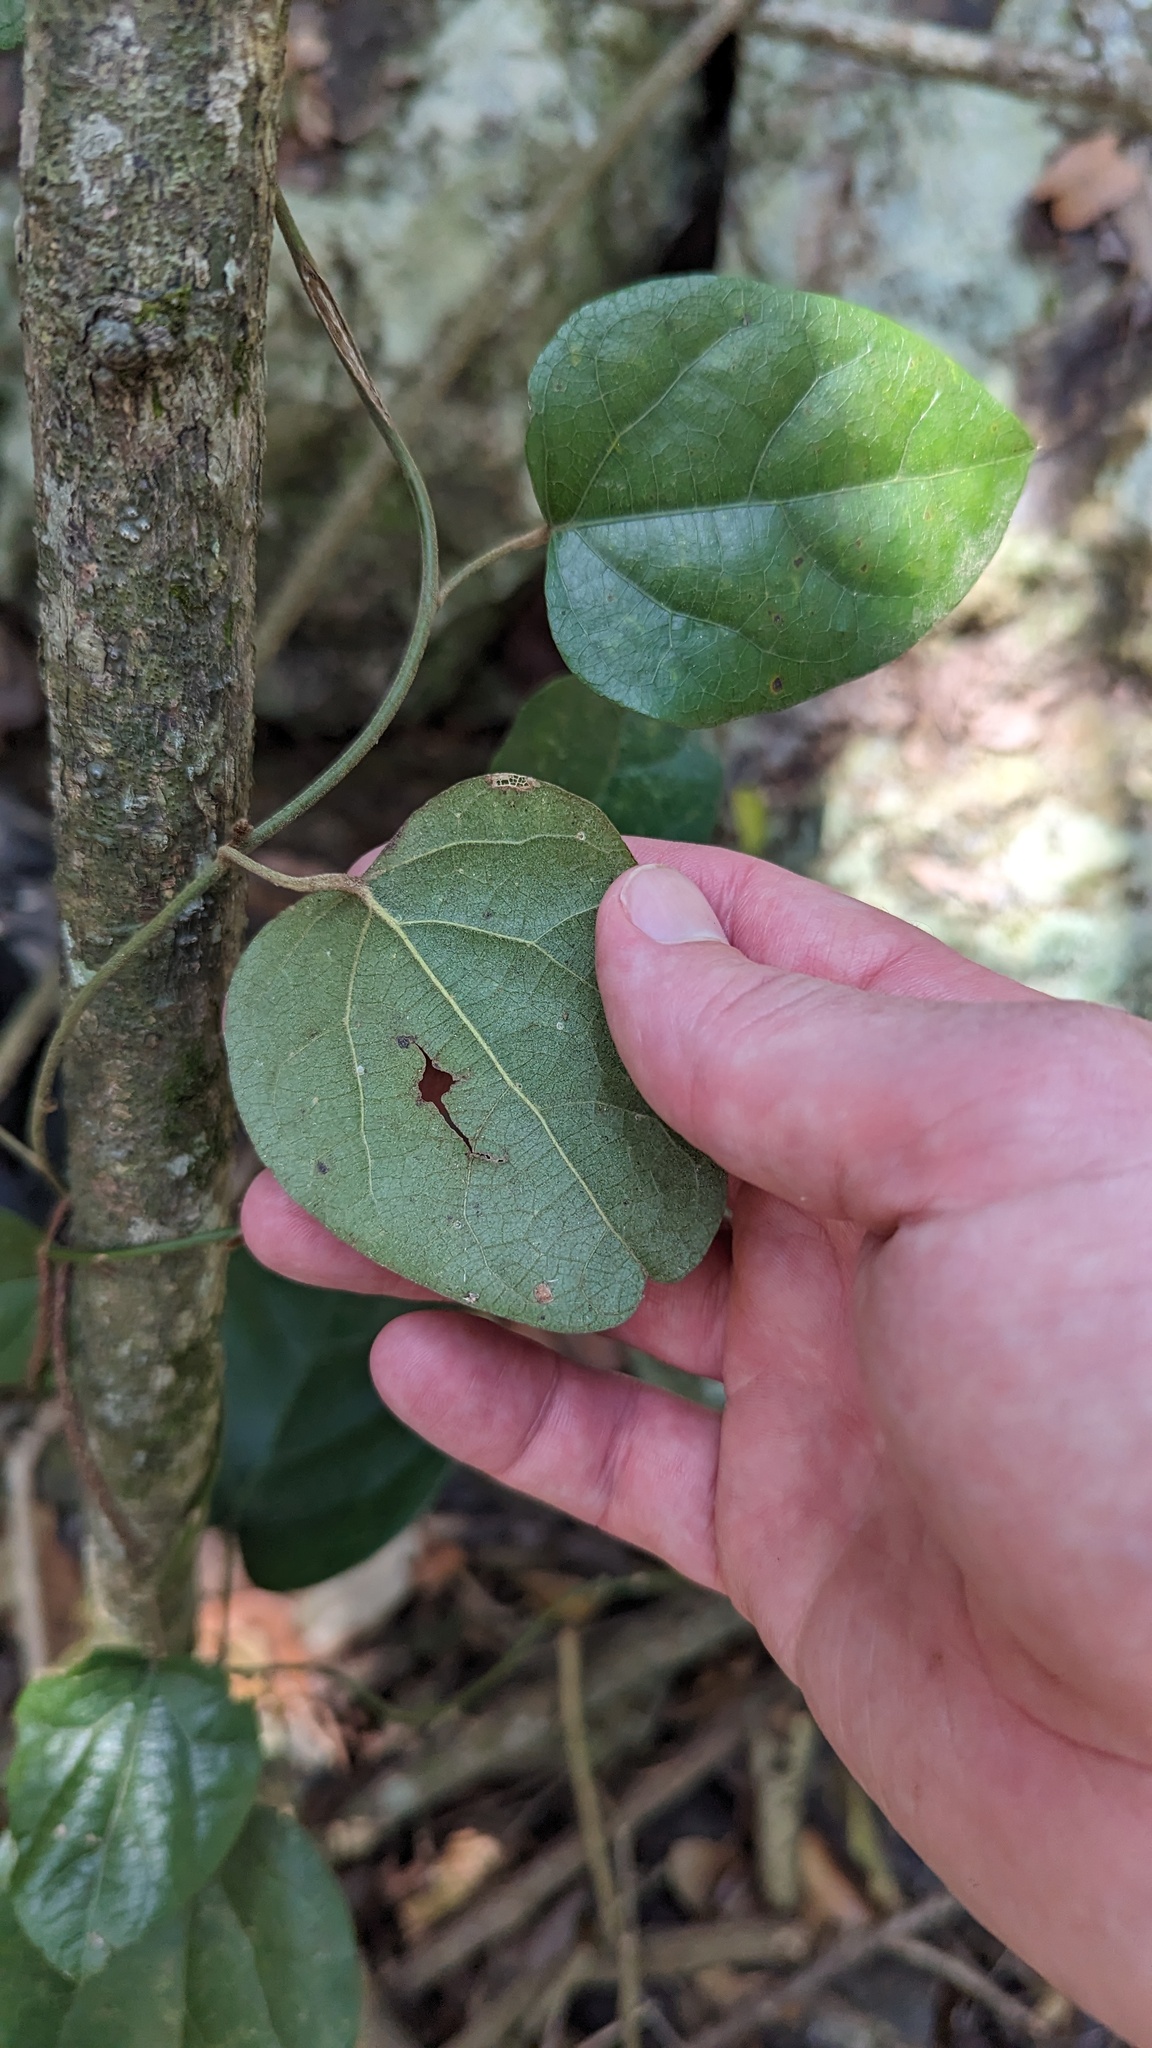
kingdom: Plantae
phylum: Tracheophyta
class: Magnoliopsida
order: Ranunculales
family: Menispermaceae
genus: Pleogyne
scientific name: Pleogyne australis
